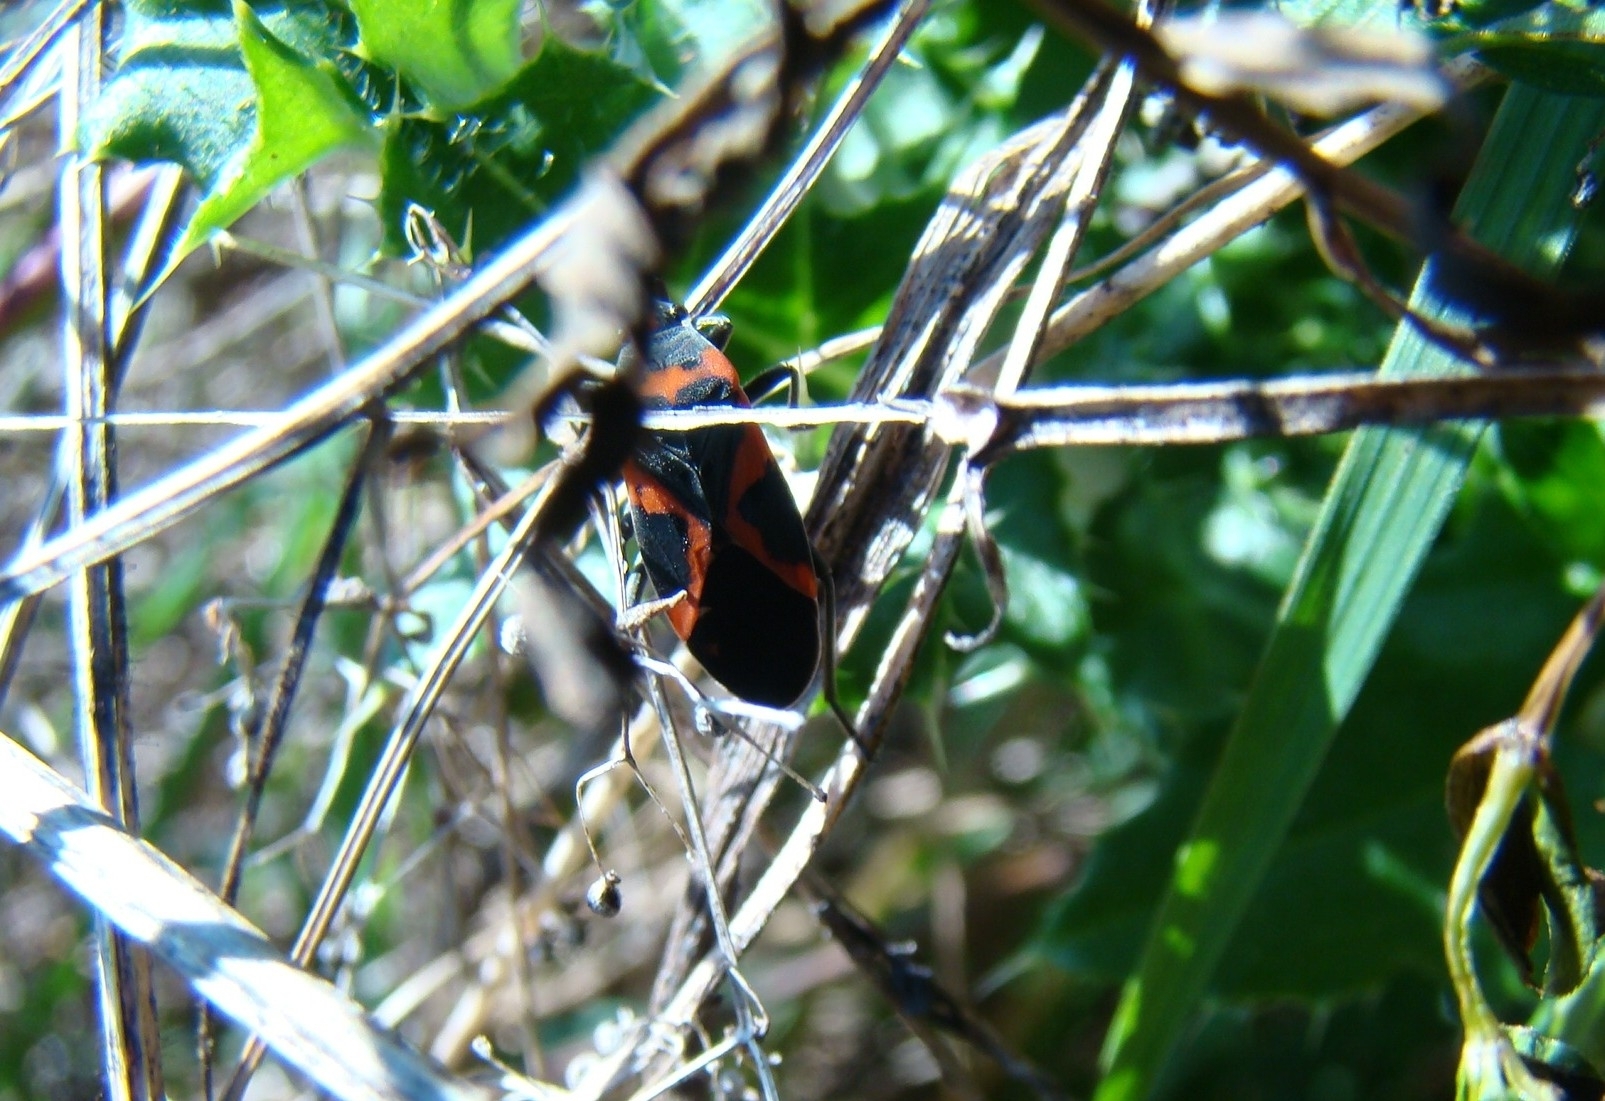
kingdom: Animalia
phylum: Arthropoda
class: Insecta
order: Hemiptera
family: Lygaeidae
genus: Lygaeus
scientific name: Lygaeus kalmii
